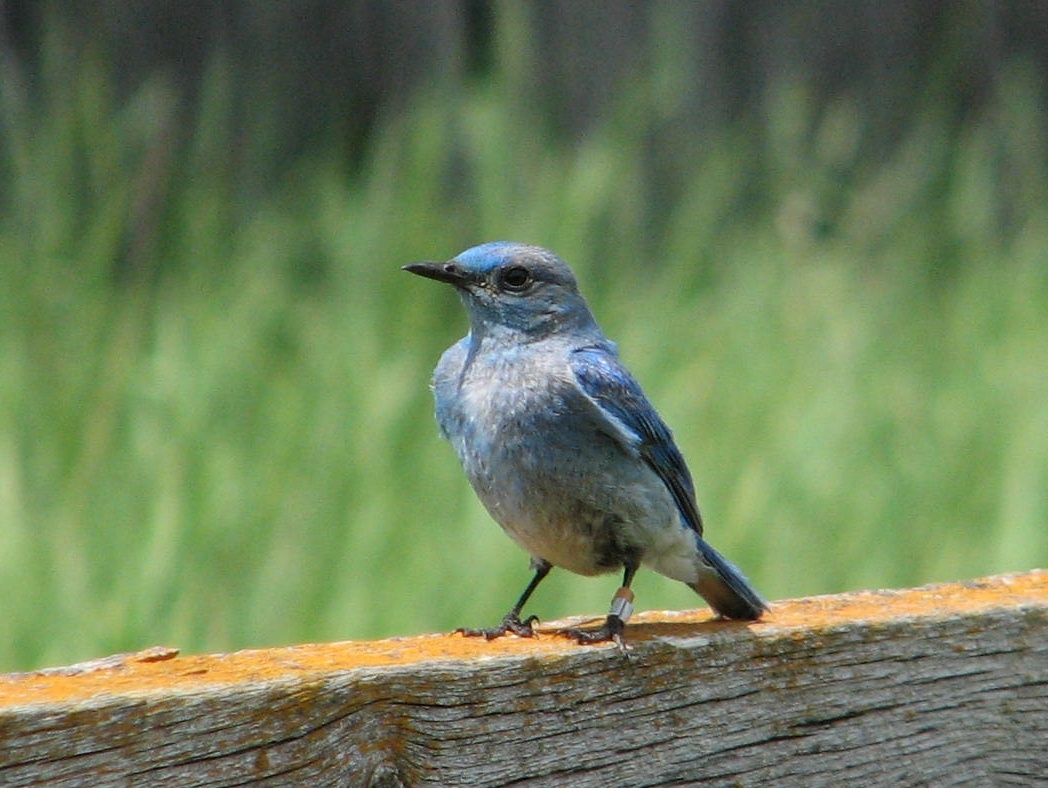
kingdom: Animalia
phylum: Chordata
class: Aves
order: Passeriformes
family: Turdidae
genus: Sialia
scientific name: Sialia currucoides
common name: Mountain bluebird
